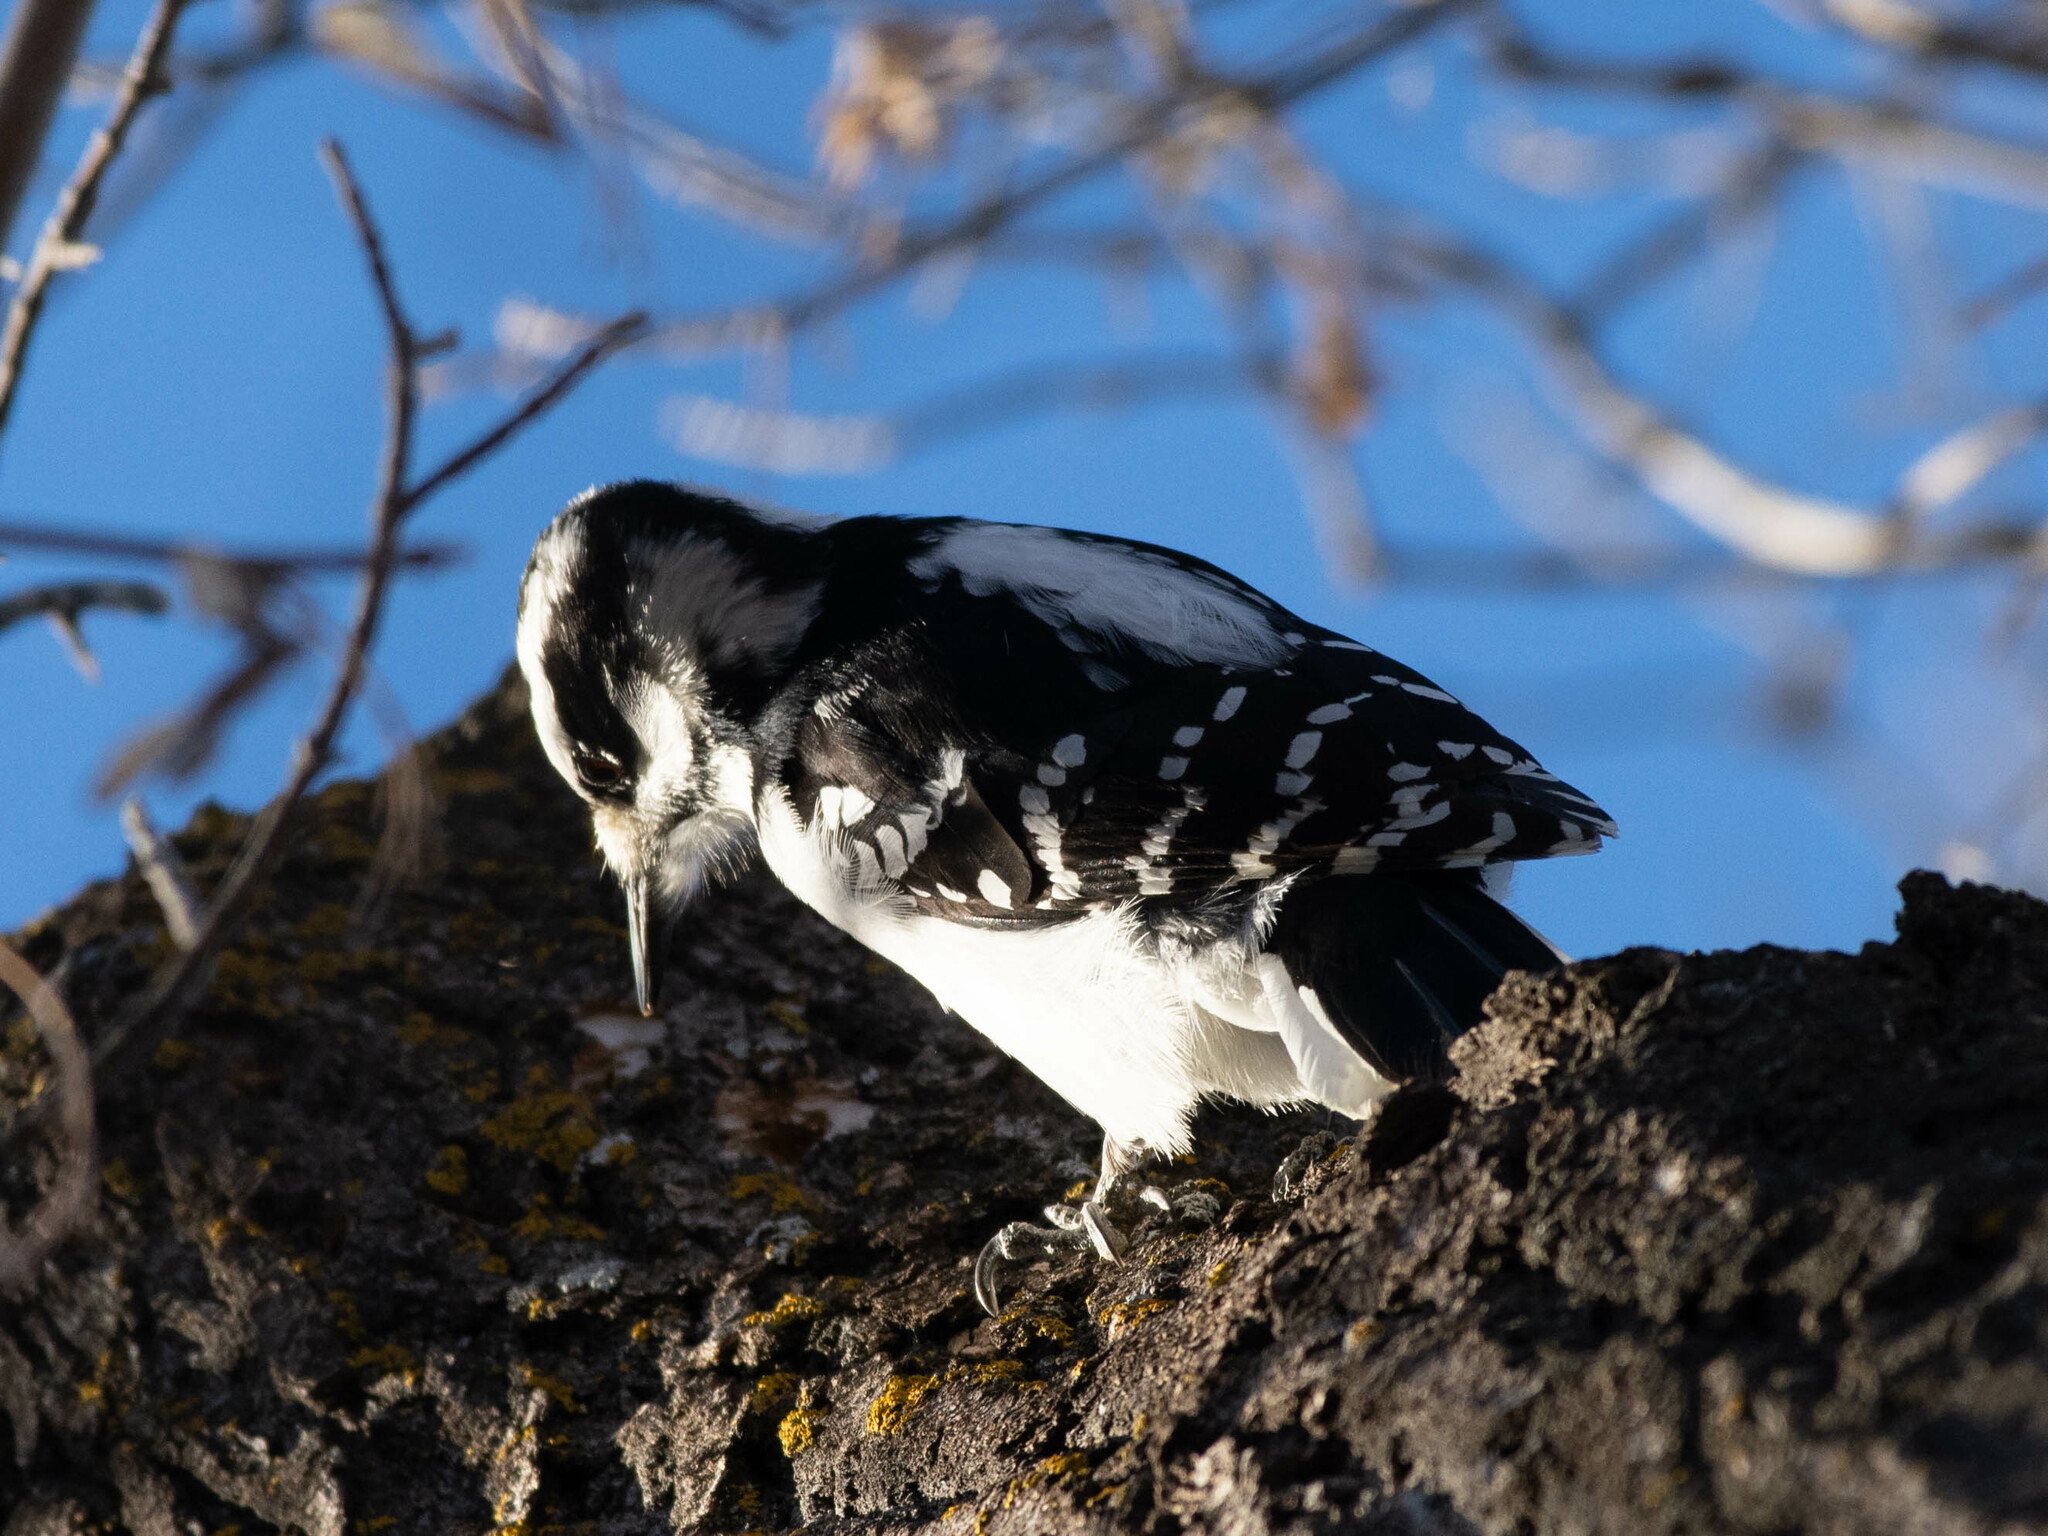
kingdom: Animalia
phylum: Chordata
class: Aves
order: Piciformes
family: Picidae
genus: Leuconotopicus
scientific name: Leuconotopicus villosus
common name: Hairy woodpecker
